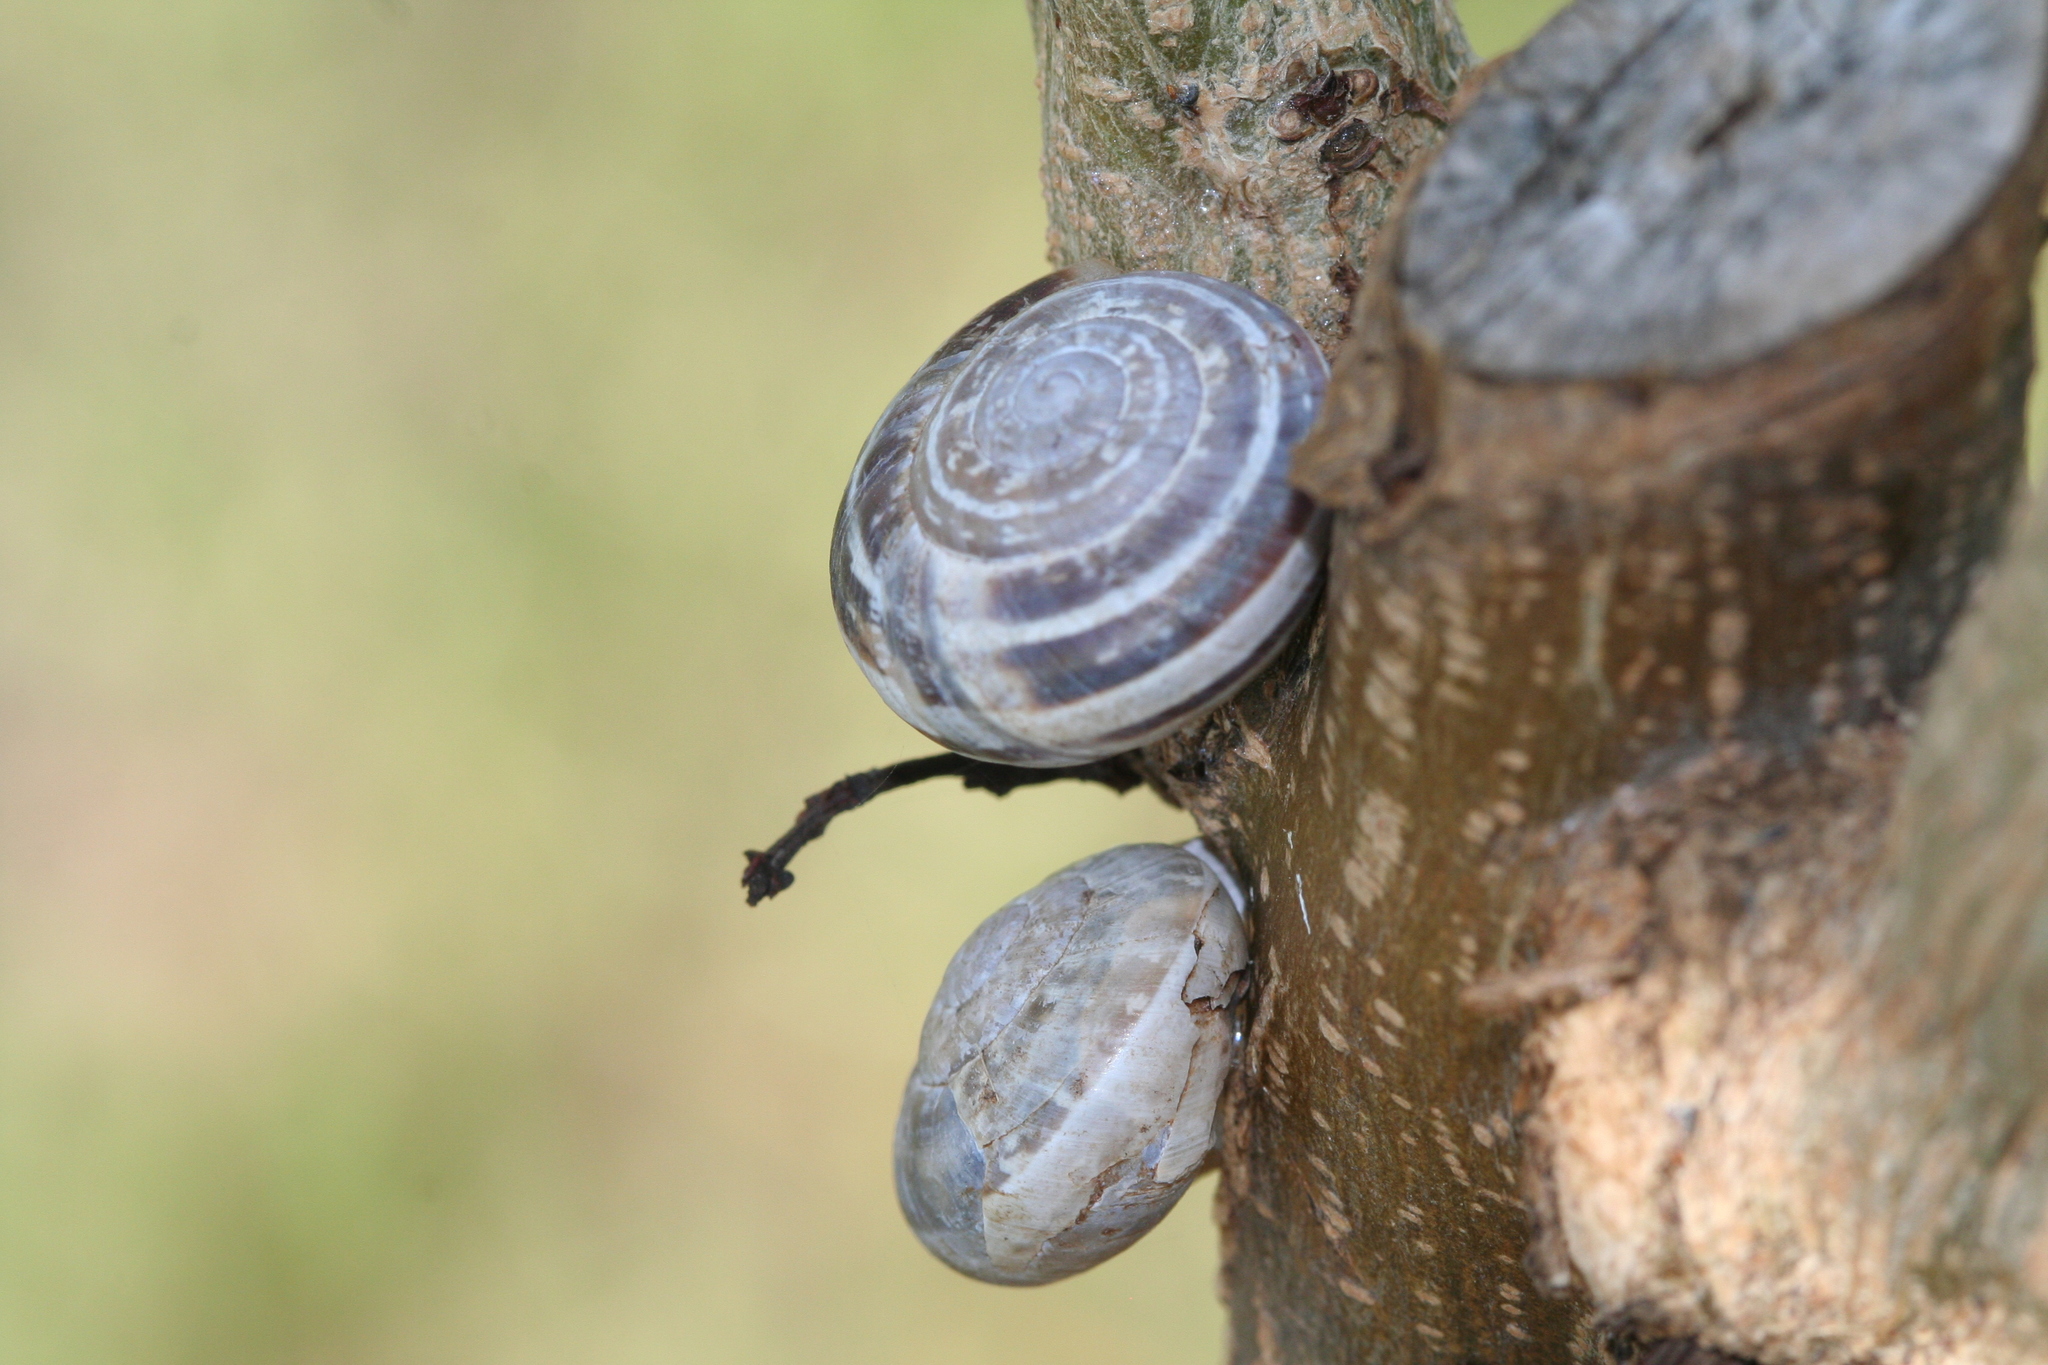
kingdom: Animalia
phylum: Mollusca
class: Gastropoda
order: Stylommatophora
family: Helicidae
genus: Eobania
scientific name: Eobania vermiculata
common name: Chocolateband snail
